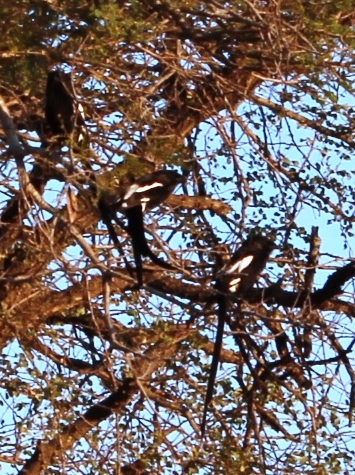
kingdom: Animalia
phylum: Chordata
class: Aves
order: Passeriformes
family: Laniidae
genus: Urolestes
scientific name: Urolestes melanoleucus
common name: Magpie shrike
